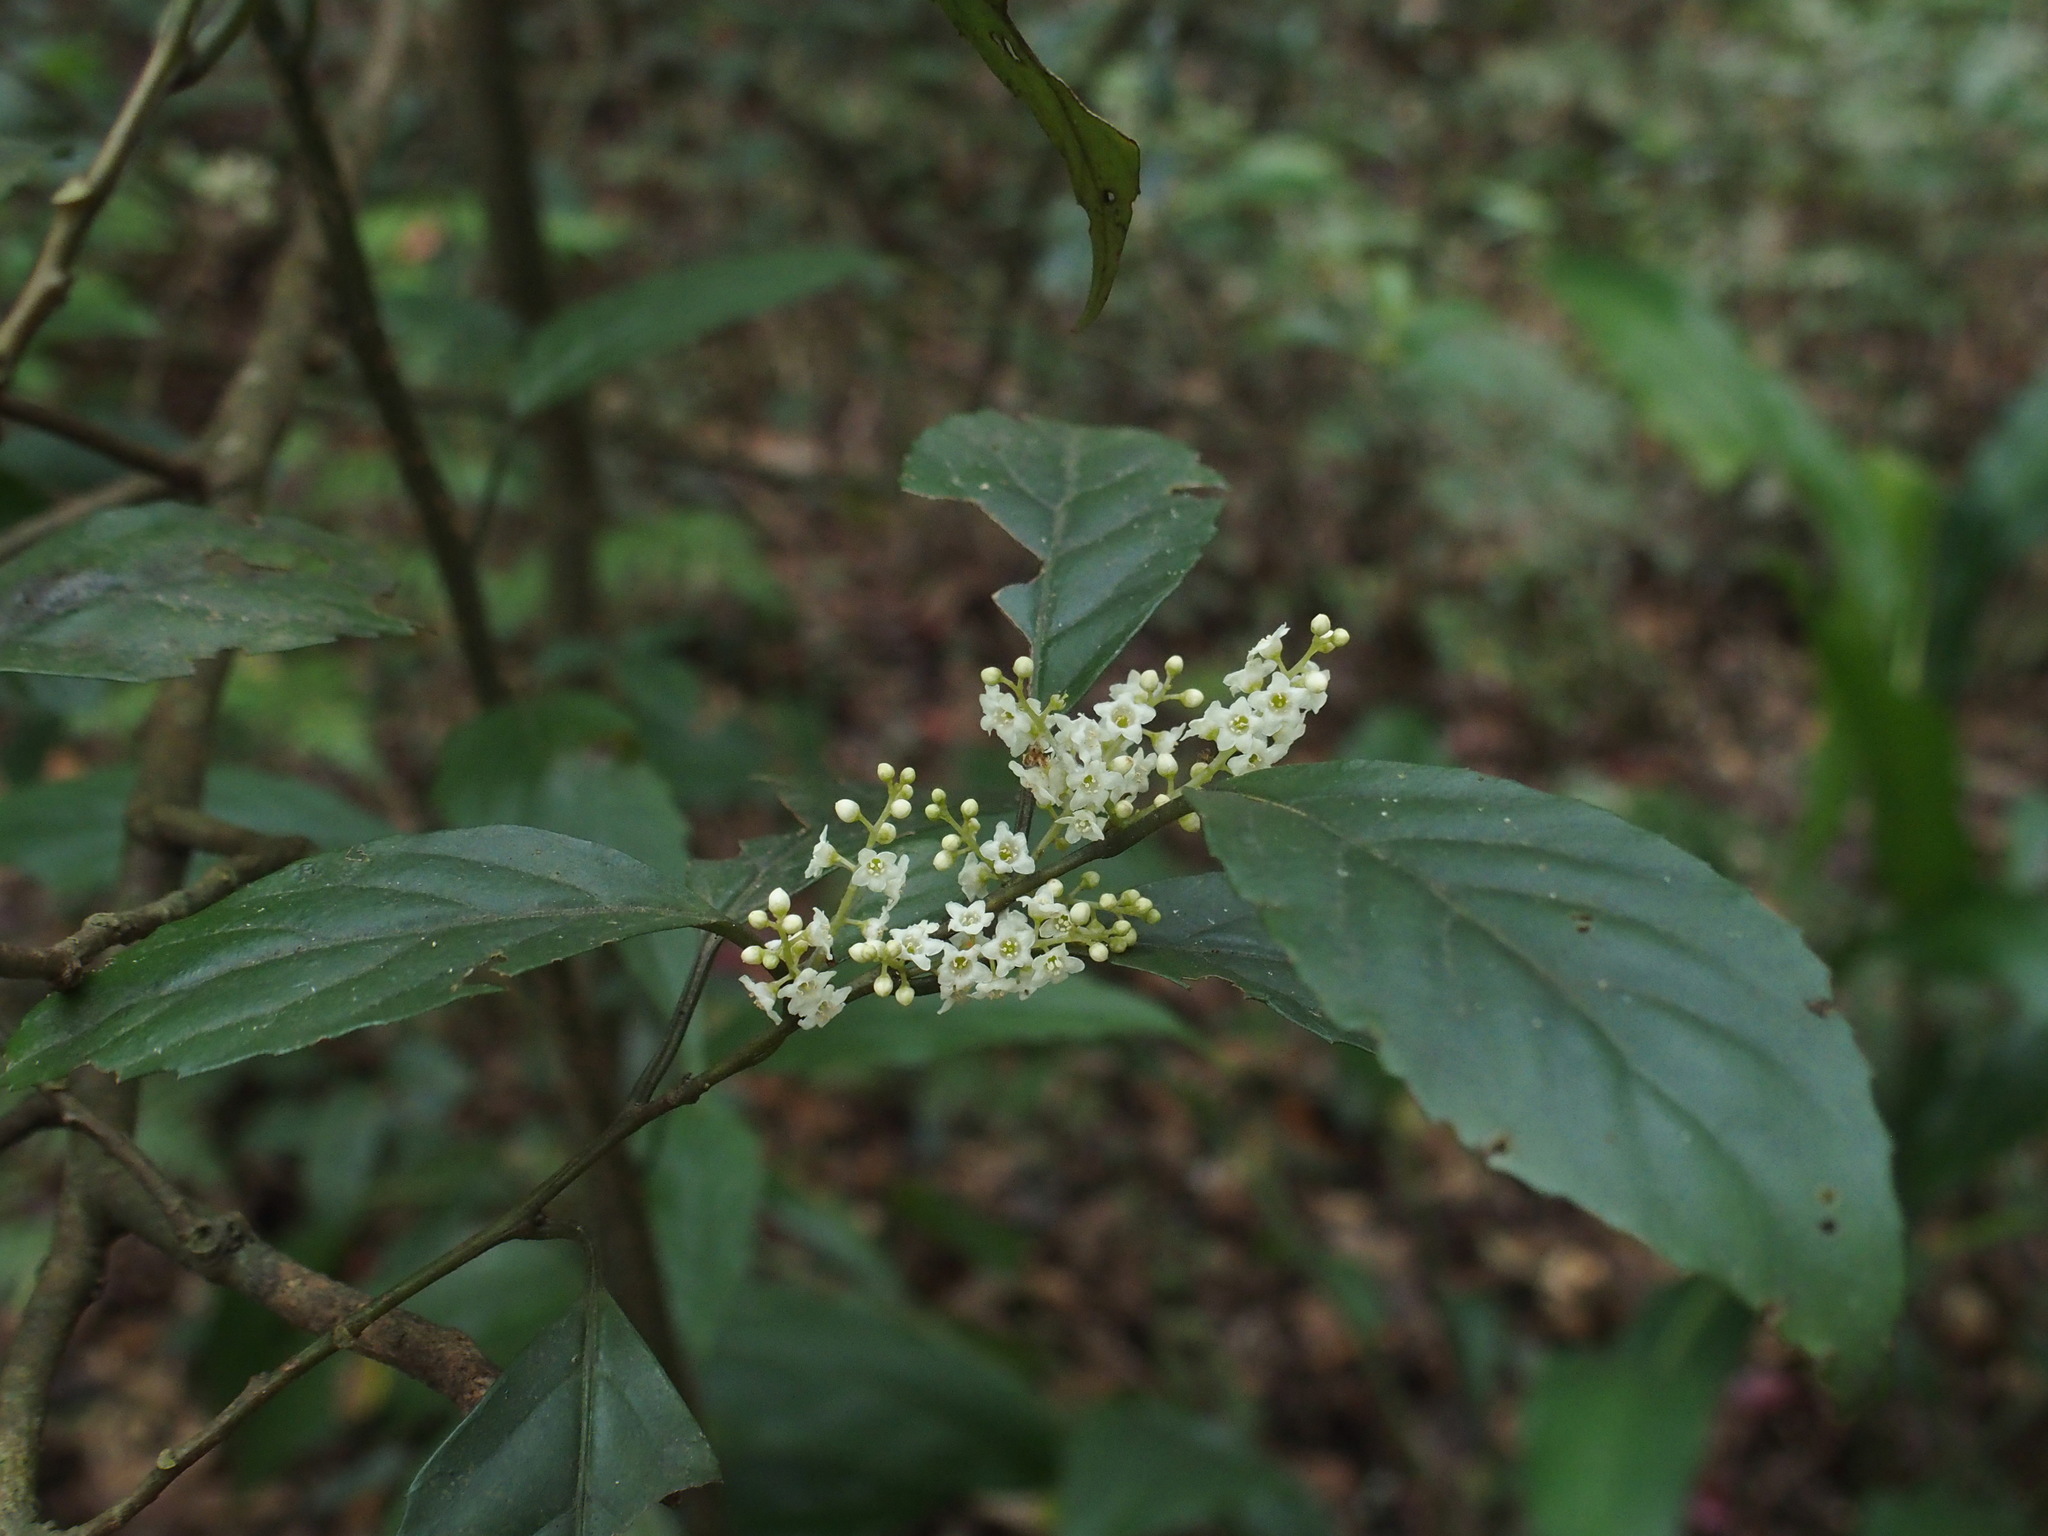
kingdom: Plantae
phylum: Tracheophyta
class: Magnoliopsida
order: Ericales
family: Primulaceae
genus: Maesa
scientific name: Maesa perlaria
